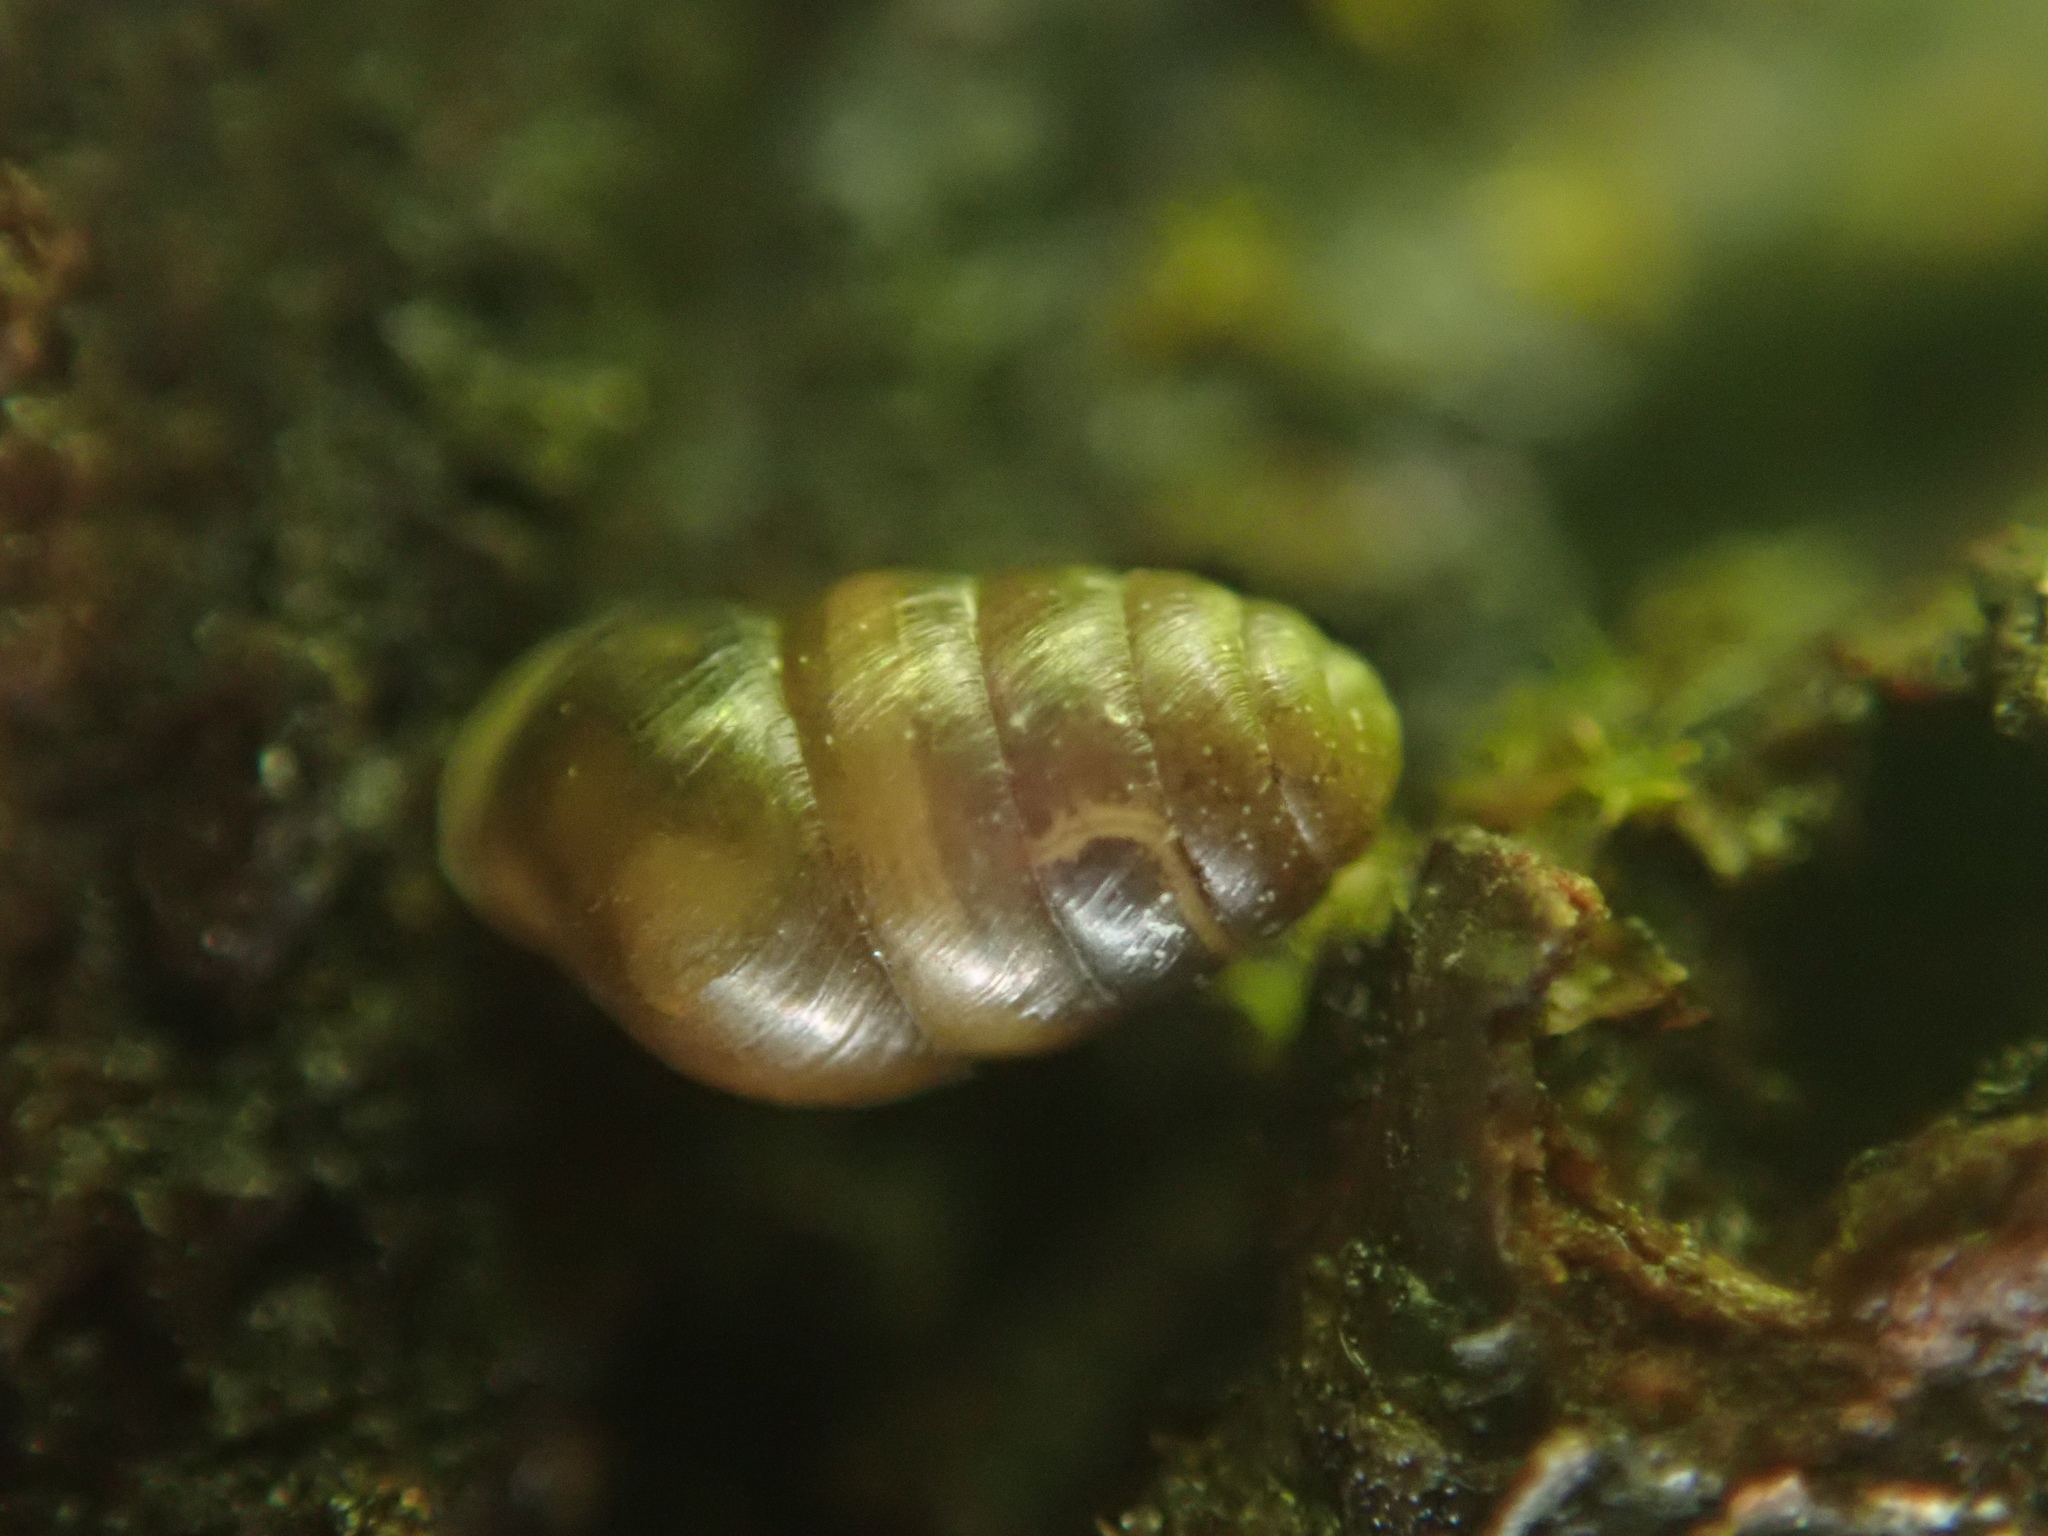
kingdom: Animalia
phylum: Mollusca
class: Gastropoda
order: Stylommatophora
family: Lauriidae
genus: Lauria
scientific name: Lauria cylindracea
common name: Common chrysalis snail
